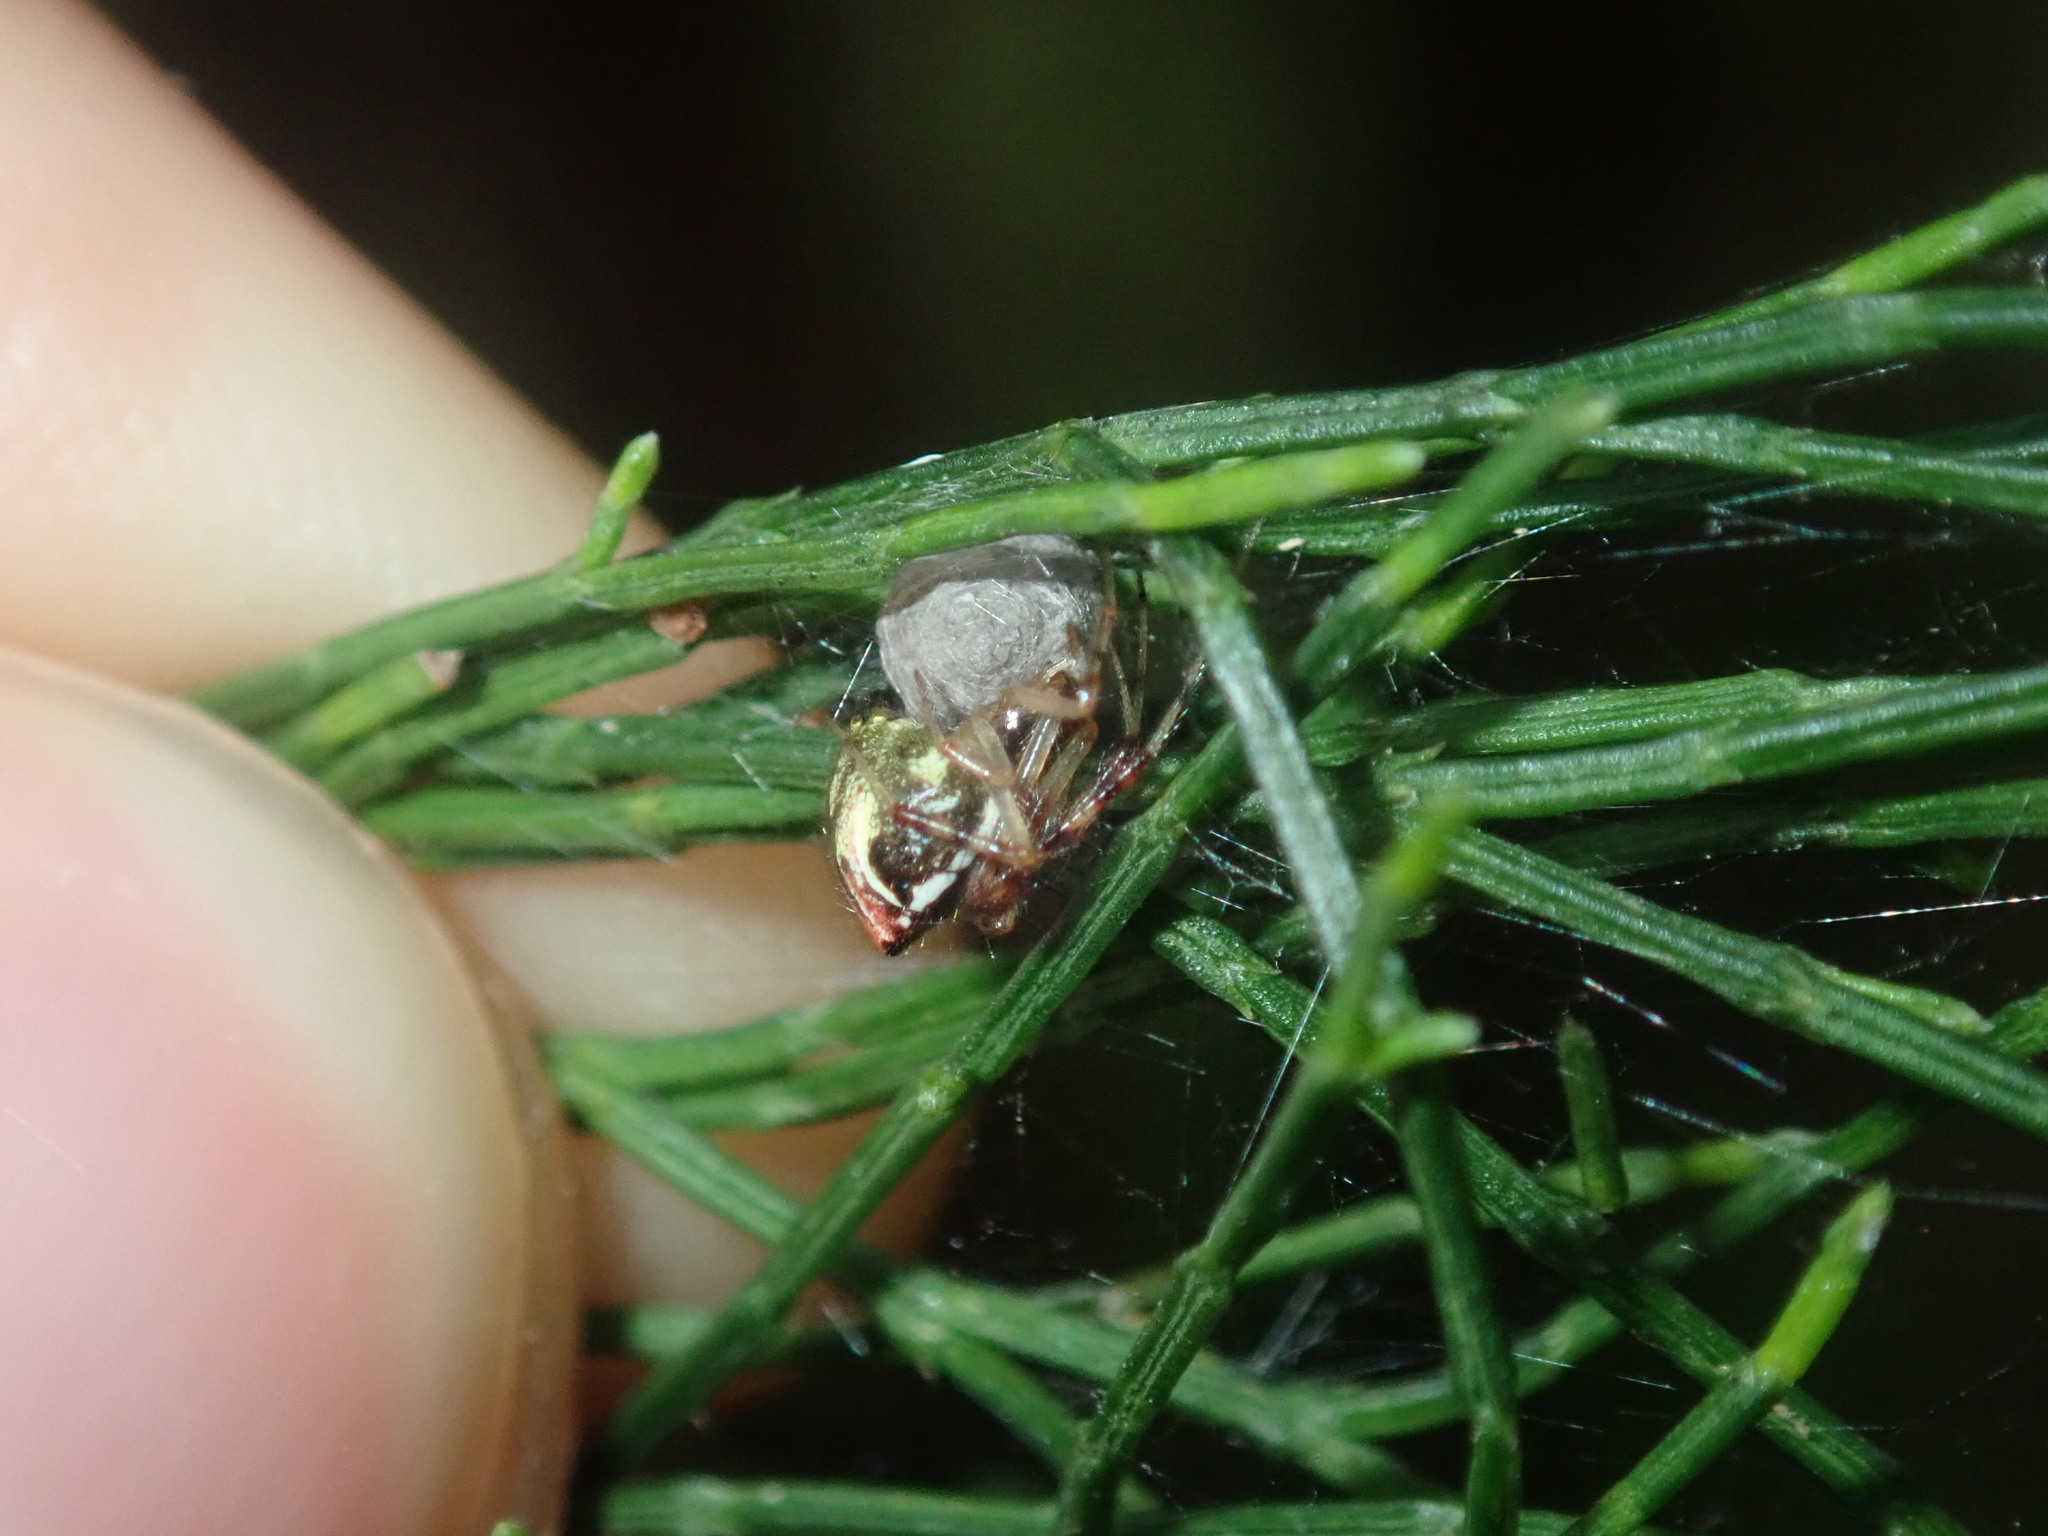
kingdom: Animalia
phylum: Arthropoda
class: Arachnida
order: Araneae
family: Theridiidae
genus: Theridion
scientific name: Theridion pyramidale
